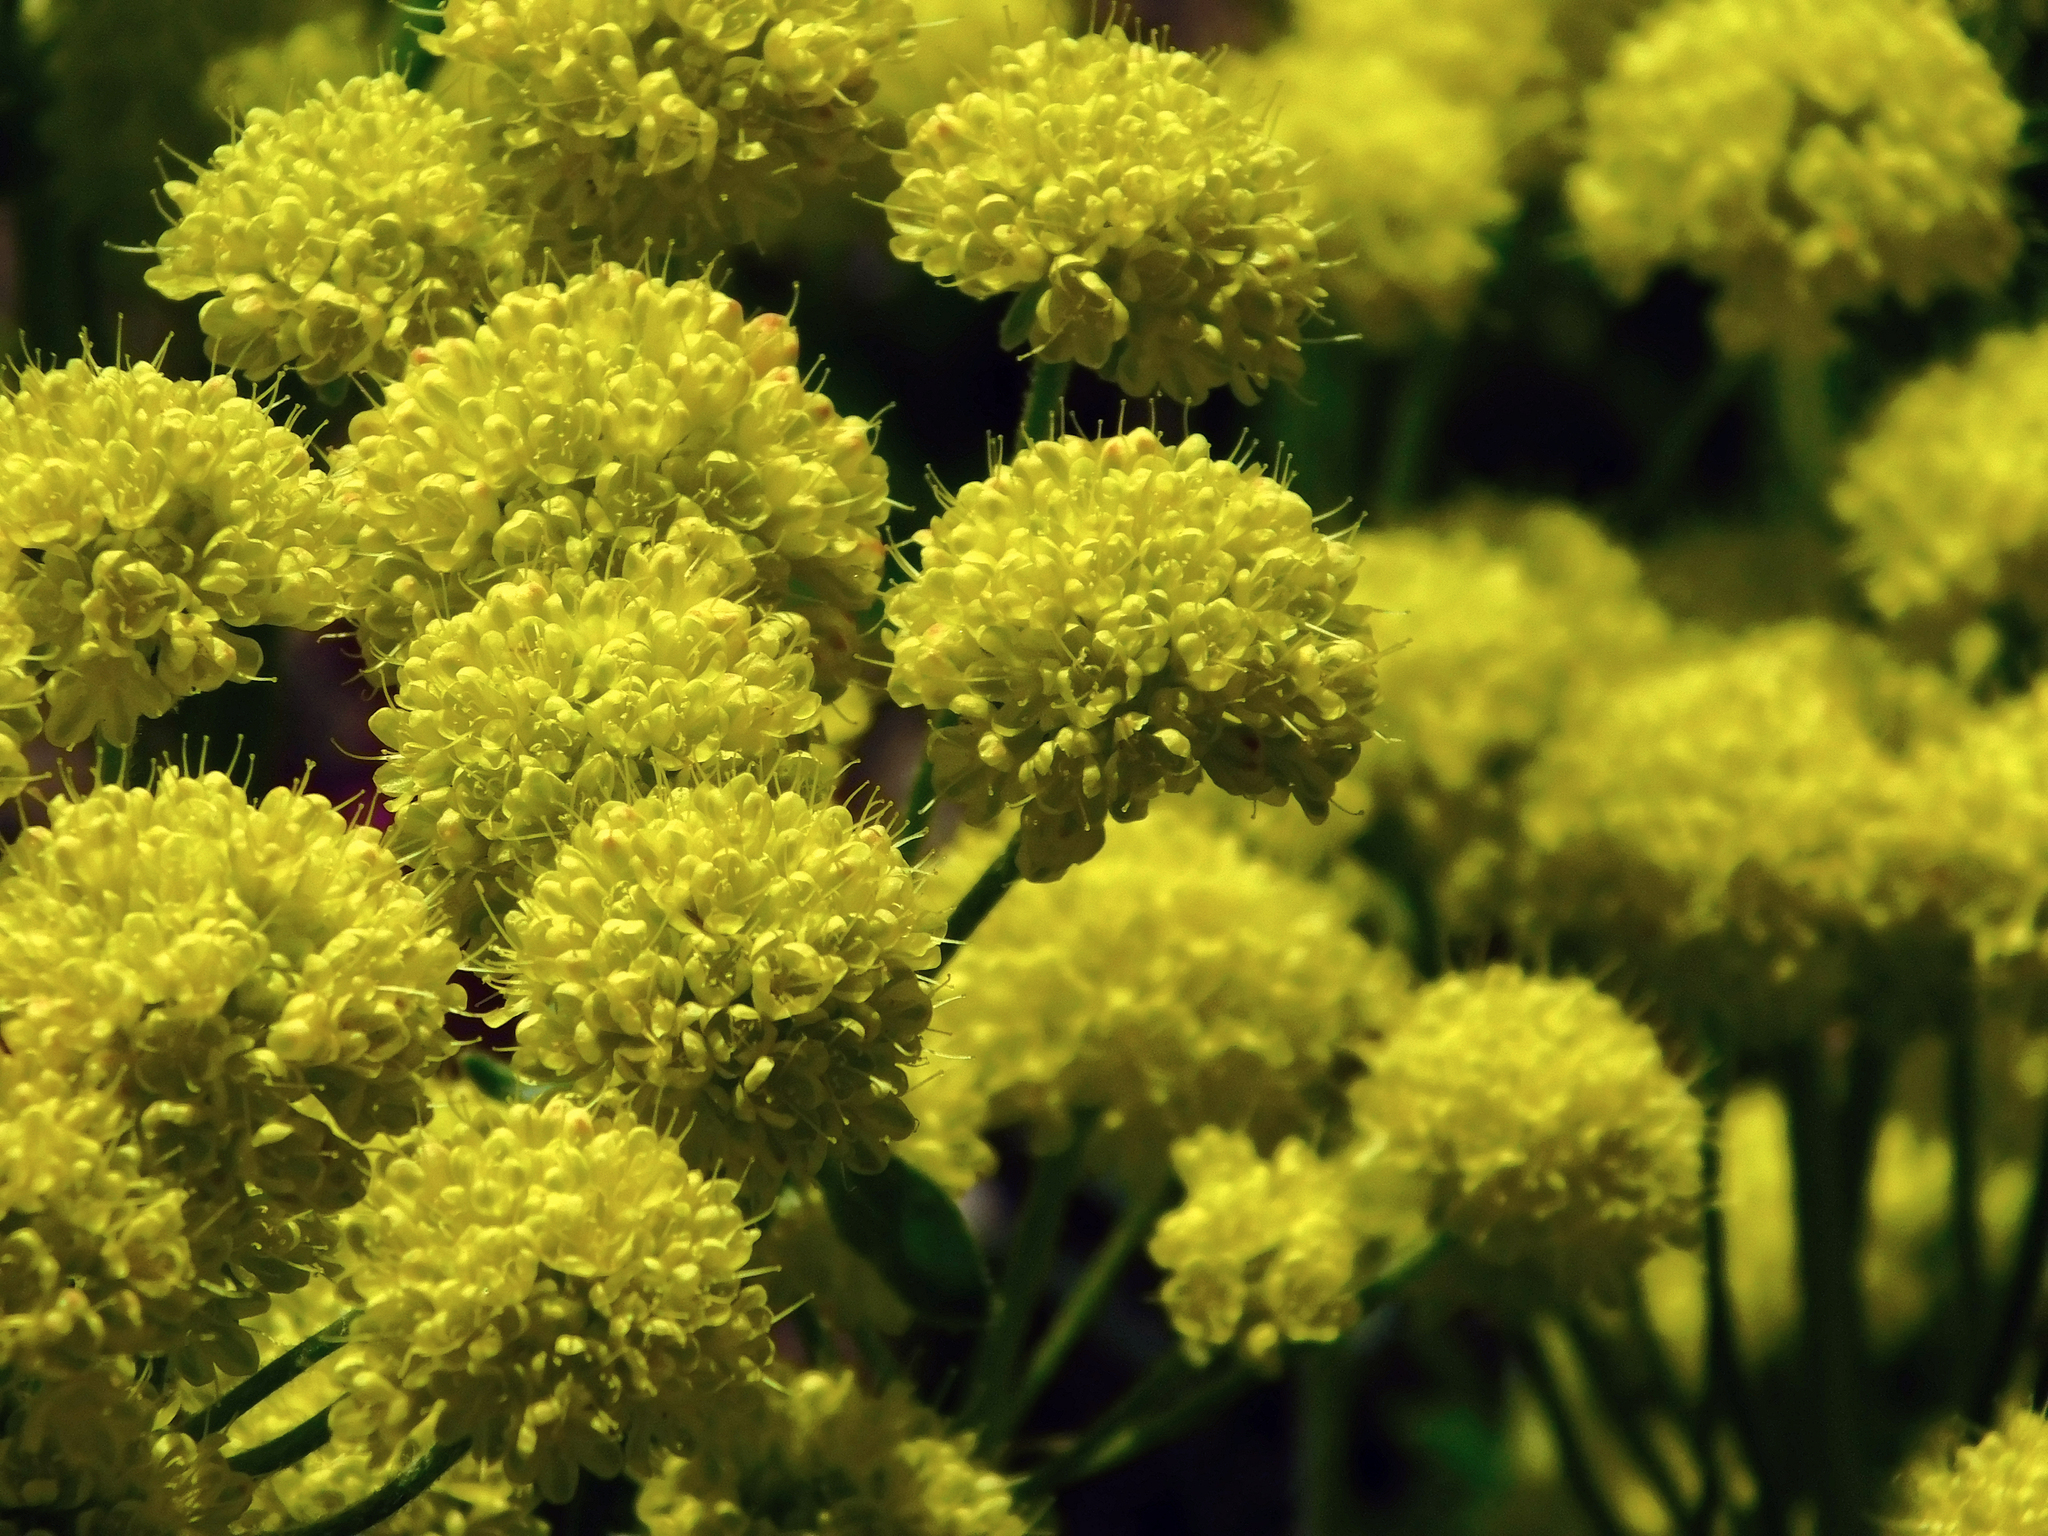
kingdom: Plantae
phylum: Tracheophyta
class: Magnoliopsida
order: Caryophyllales
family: Polygonaceae
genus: Eriogonum
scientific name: Eriogonum umbellatum
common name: Sulfur-buckwheat
